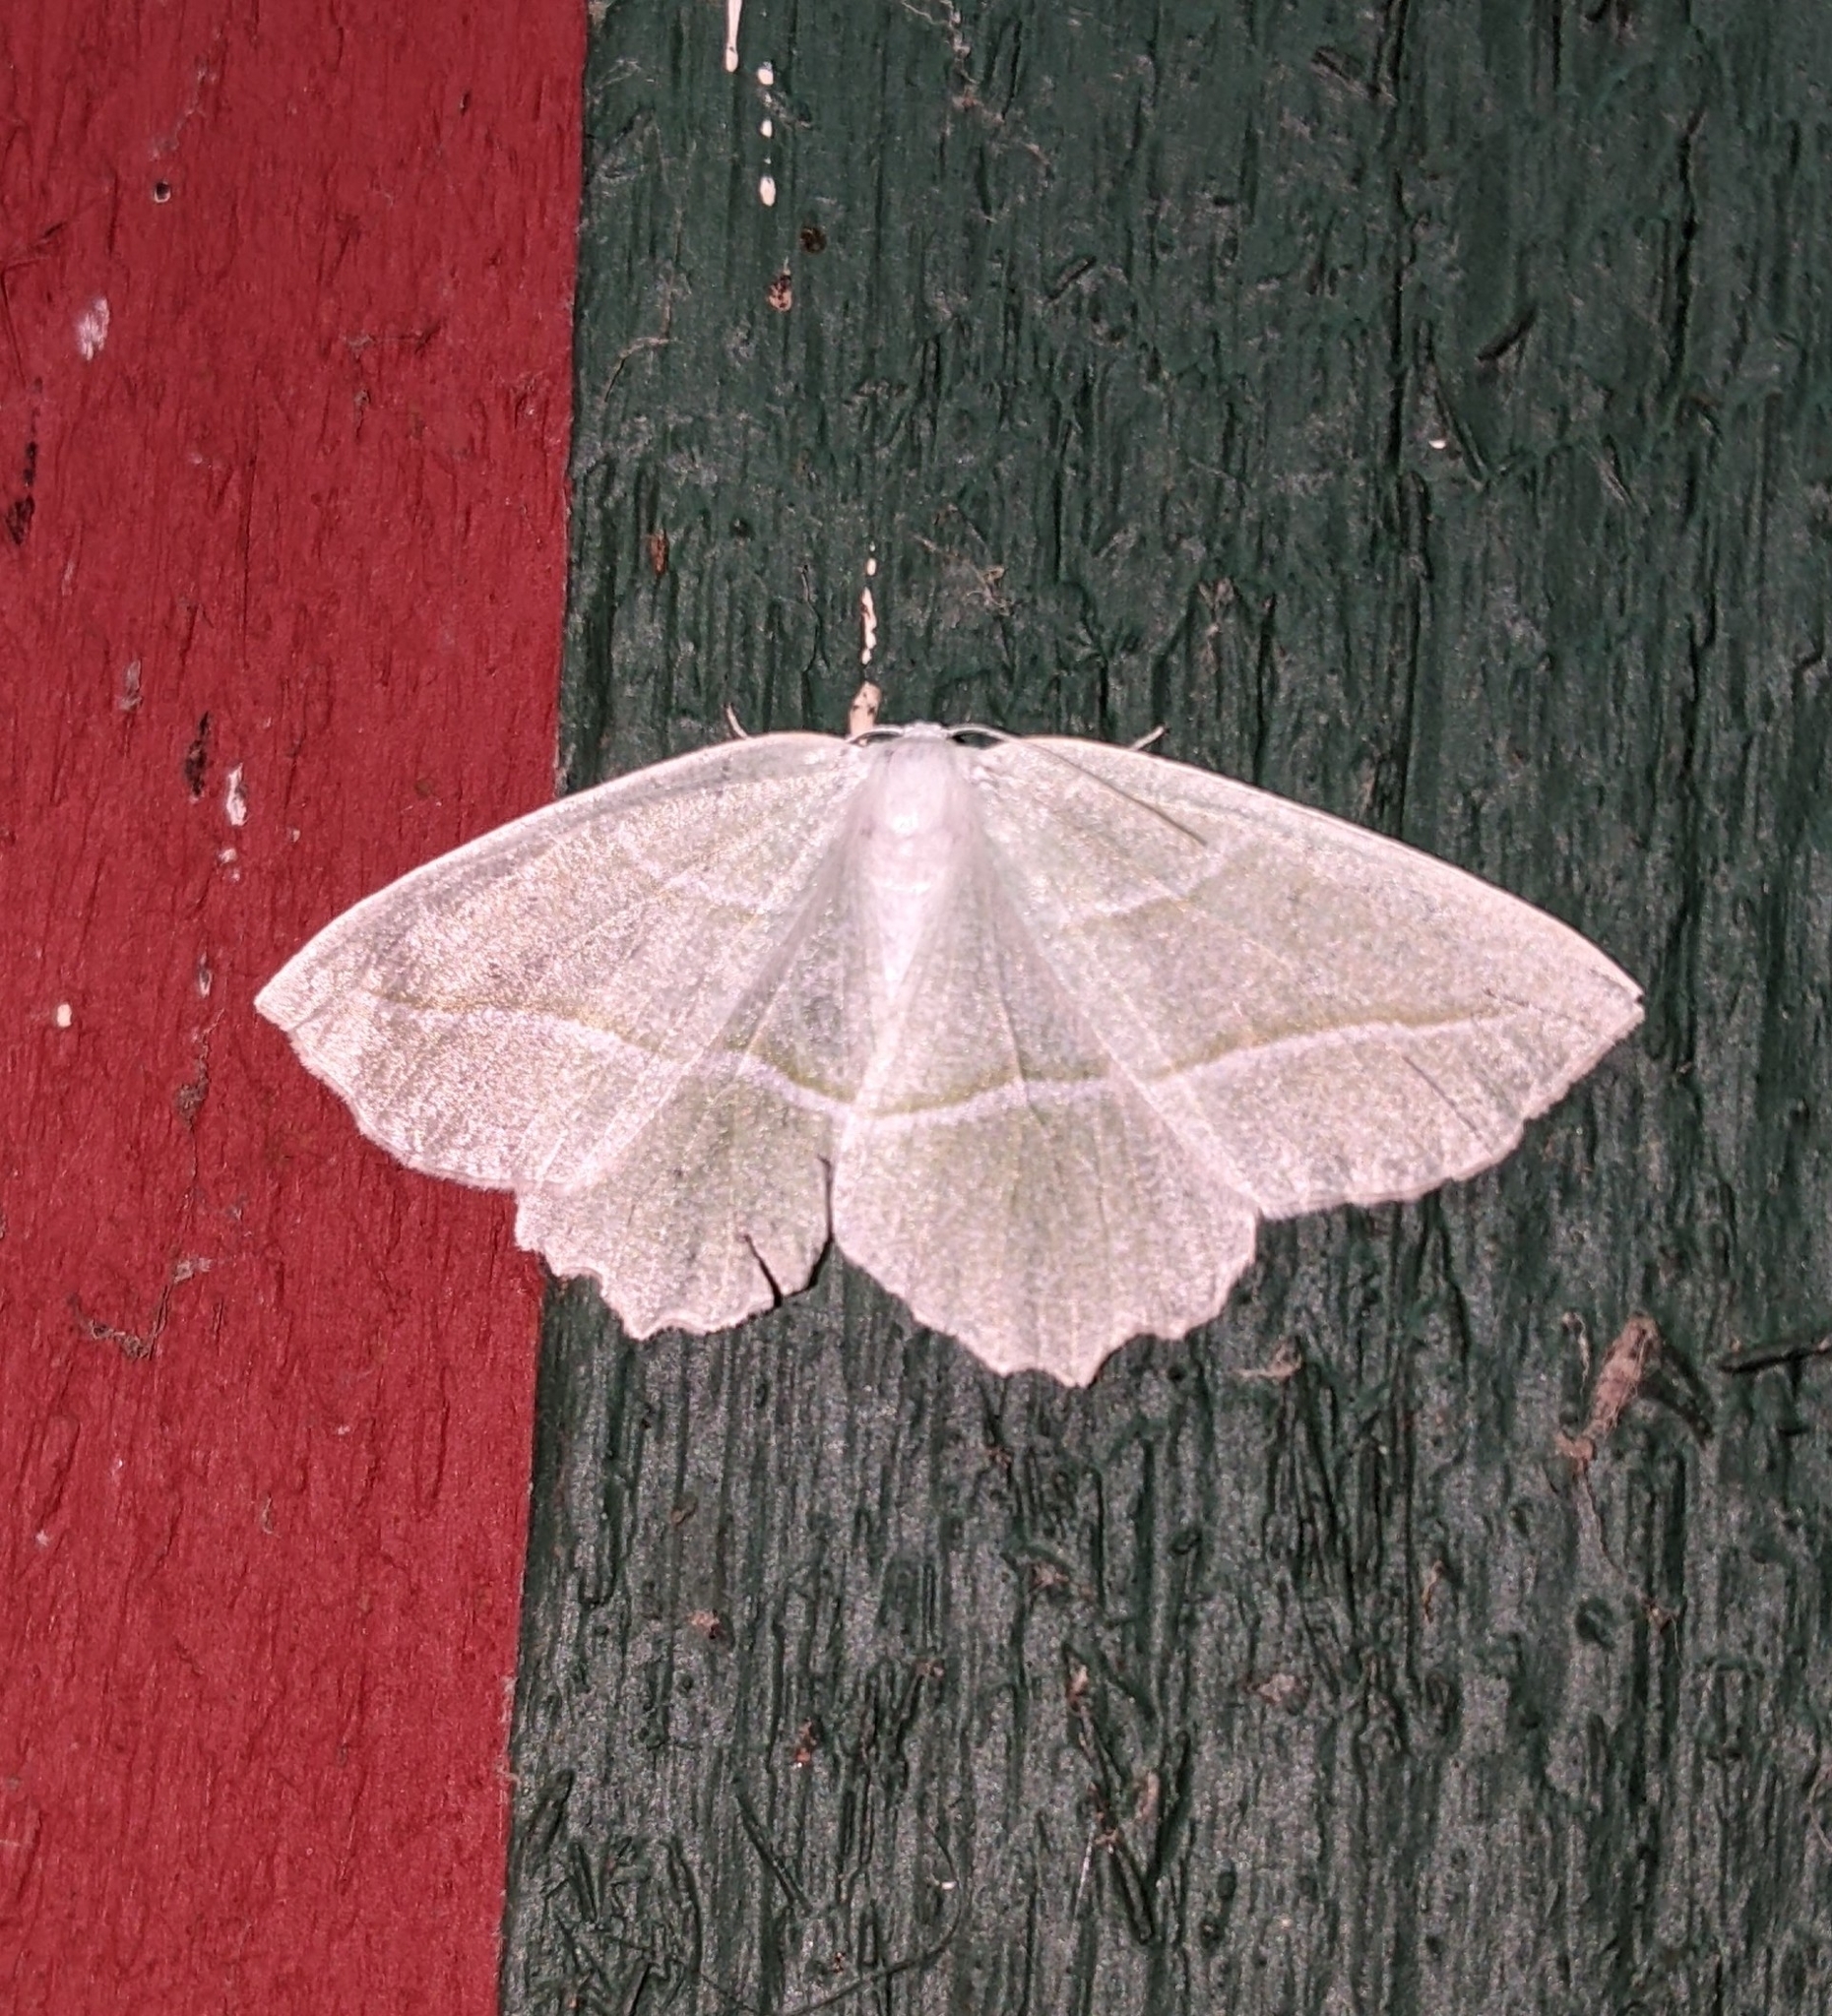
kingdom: Animalia
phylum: Arthropoda
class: Insecta
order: Lepidoptera
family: Geometridae
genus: Campaea
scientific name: Campaea perlata
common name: Fringed looper
